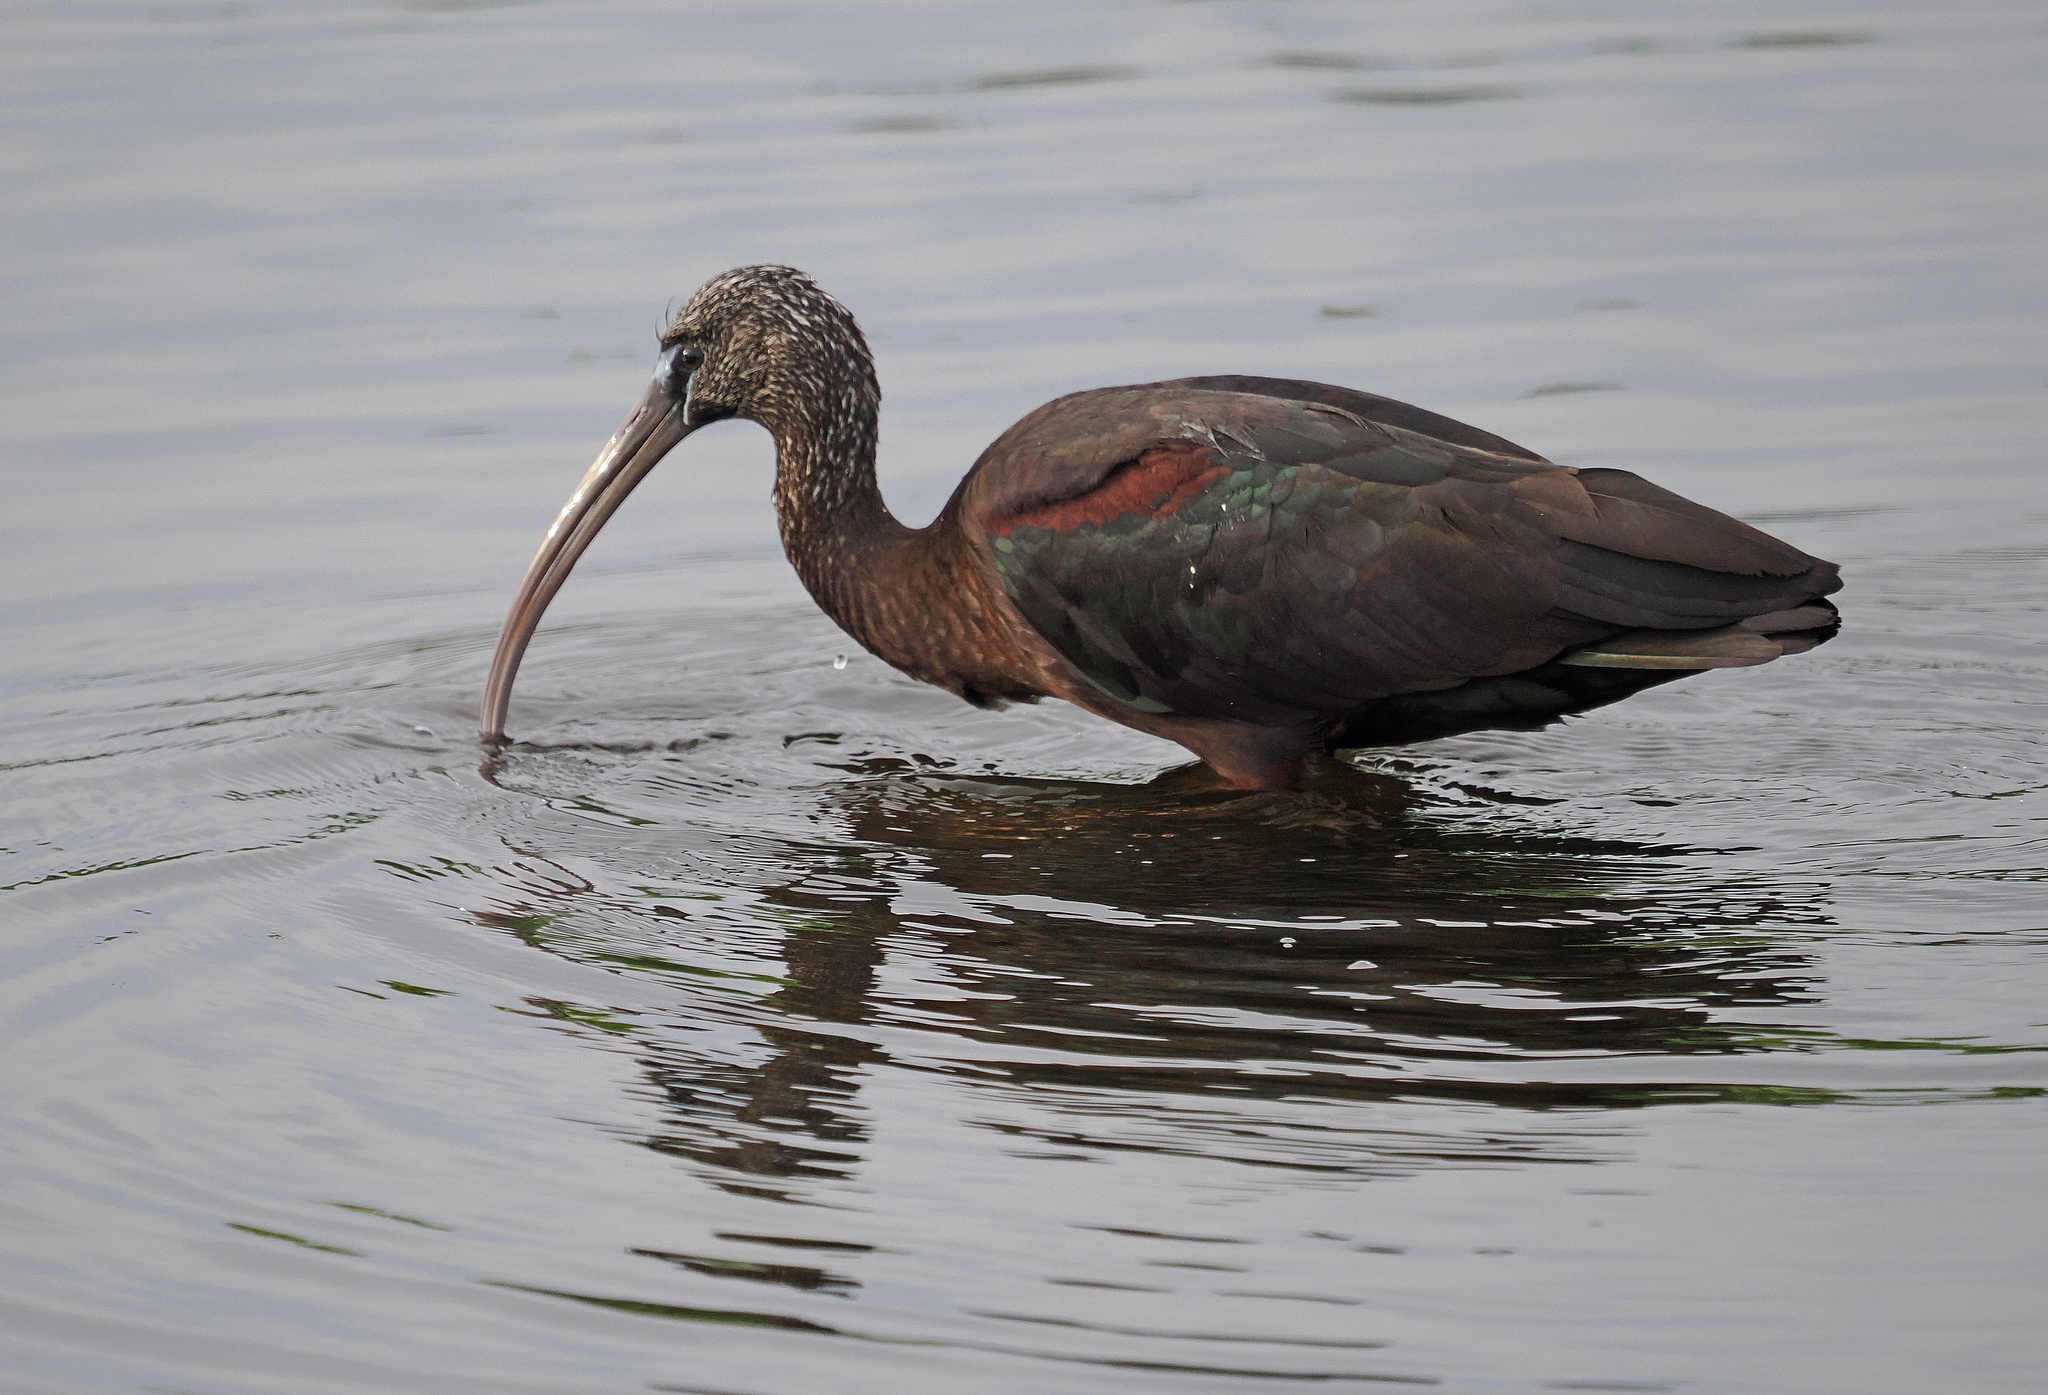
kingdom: Animalia
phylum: Chordata
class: Aves
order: Pelecaniformes
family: Threskiornithidae
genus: Plegadis
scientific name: Plegadis falcinellus
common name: Glossy ibis
